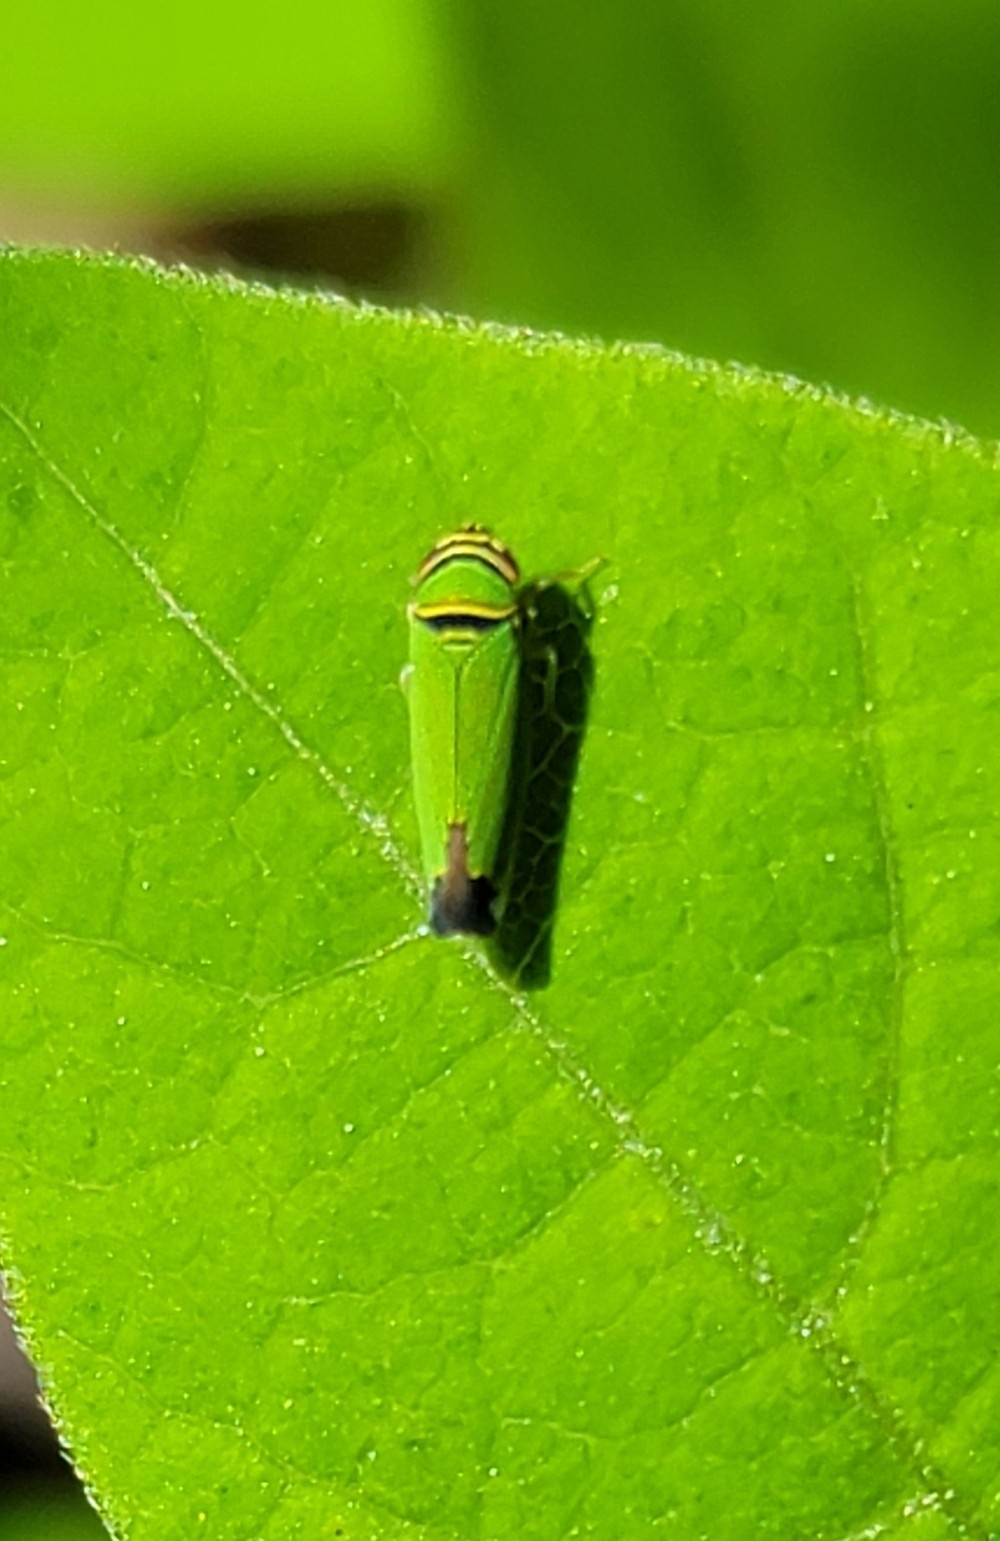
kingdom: Animalia
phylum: Arthropoda
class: Insecta
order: Hemiptera
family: Cicadellidae
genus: Tylozygus
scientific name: Tylozygus geometricus
